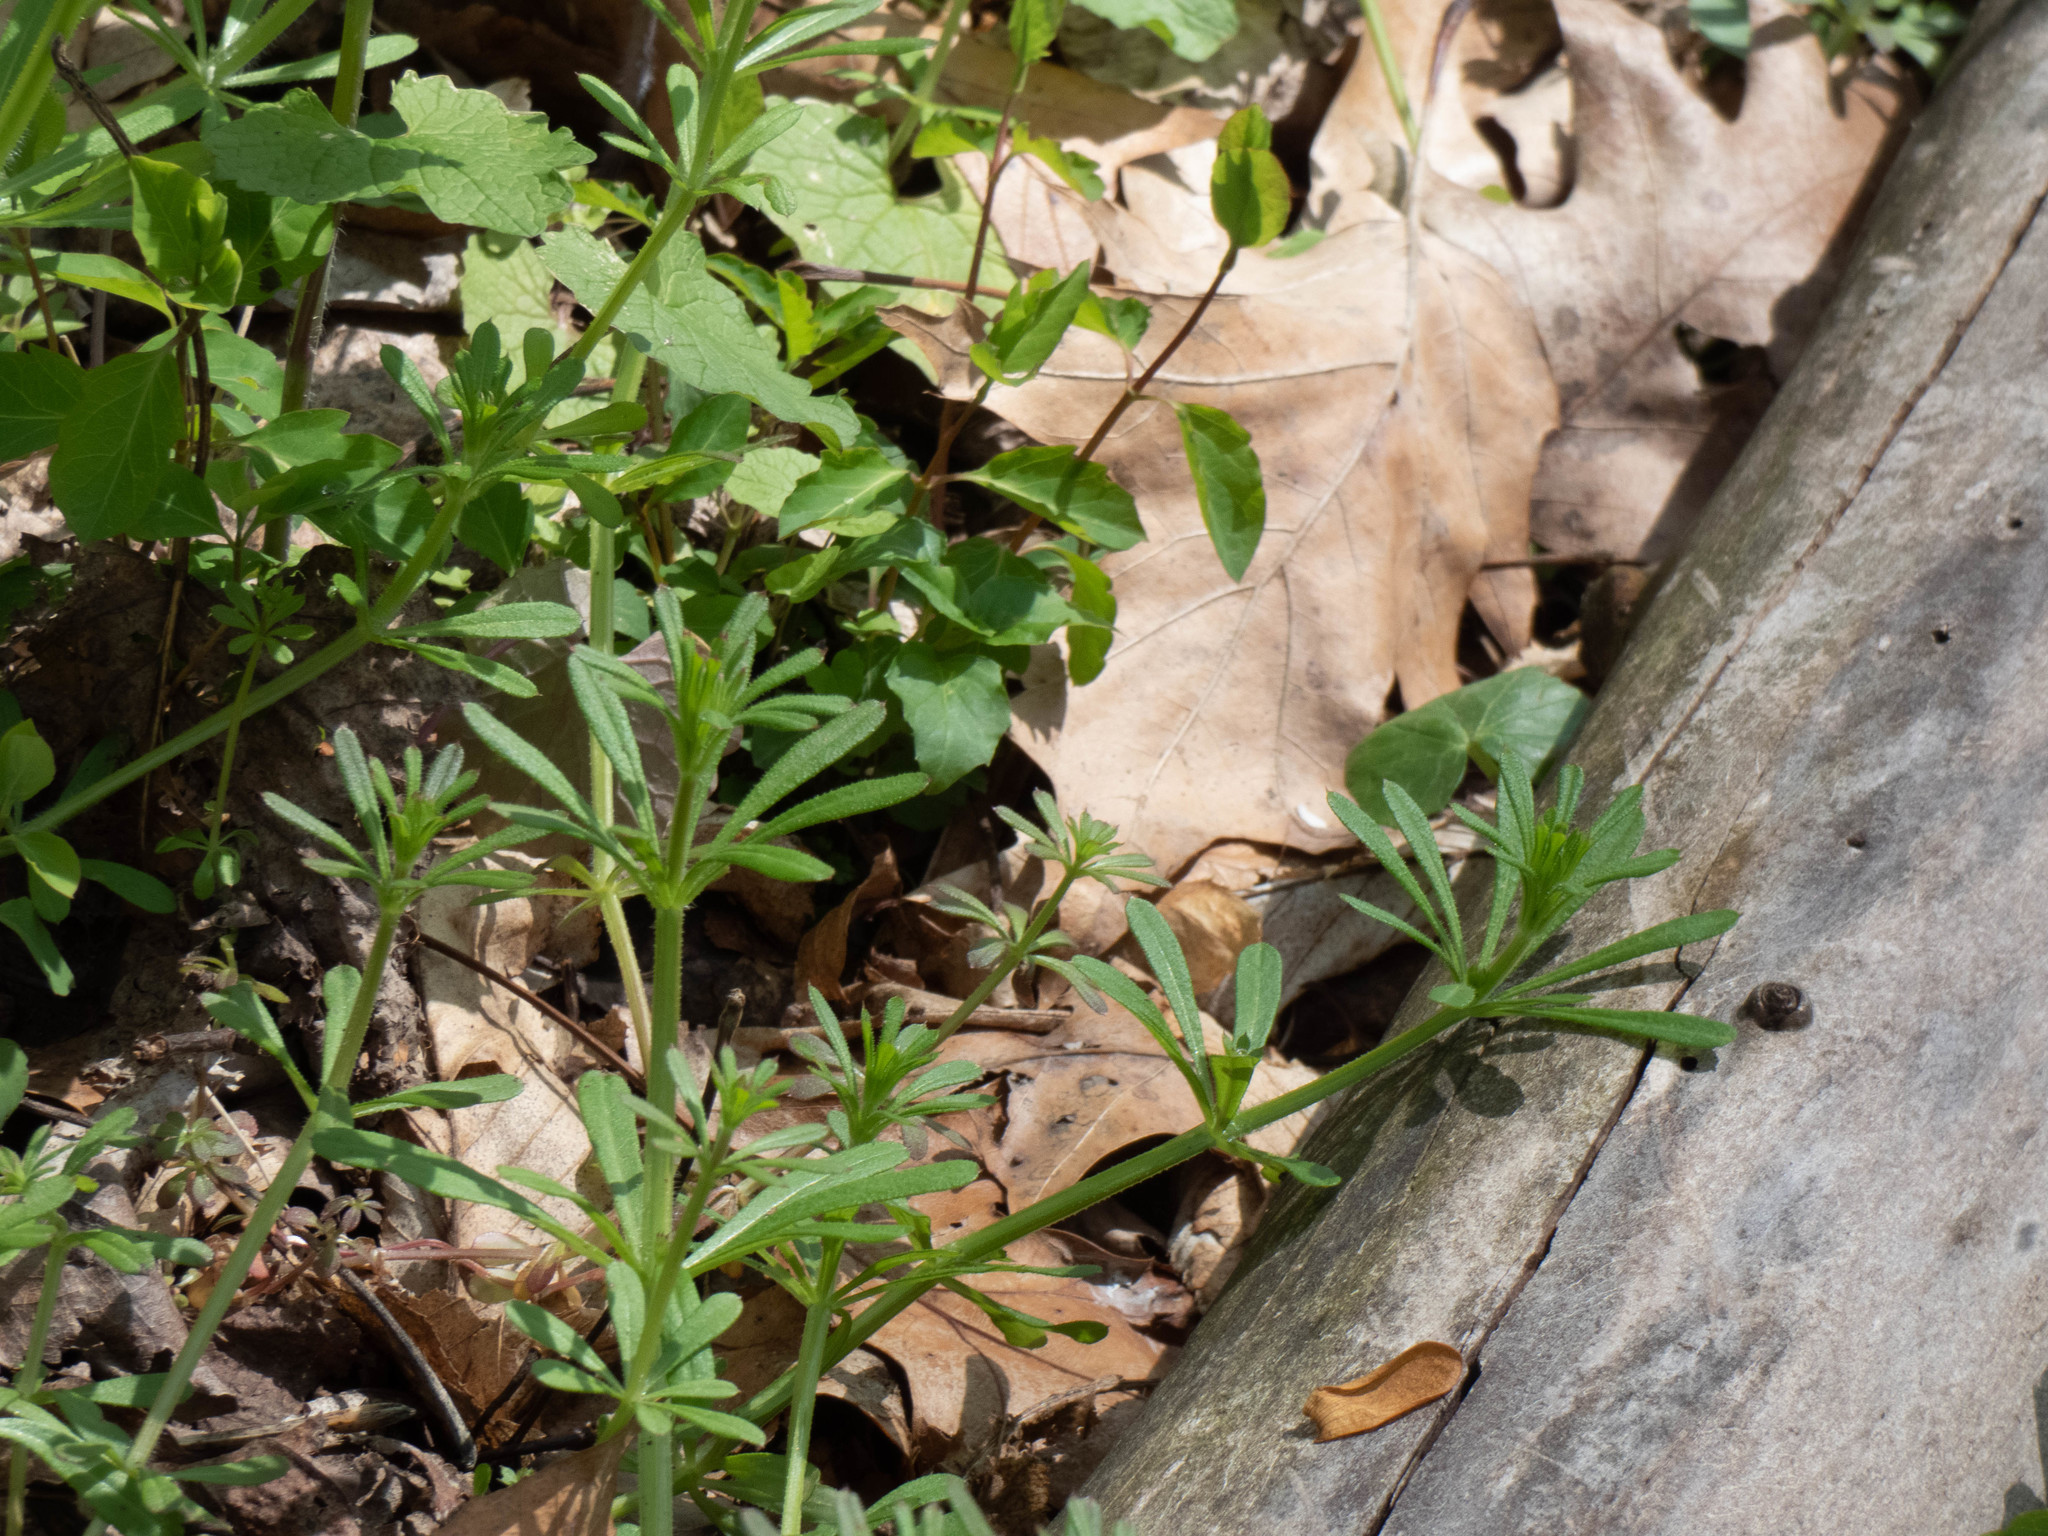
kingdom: Plantae
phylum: Tracheophyta
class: Magnoliopsida
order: Gentianales
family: Rubiaceae
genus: Galium
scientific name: Galium aparine
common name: Cleavers
